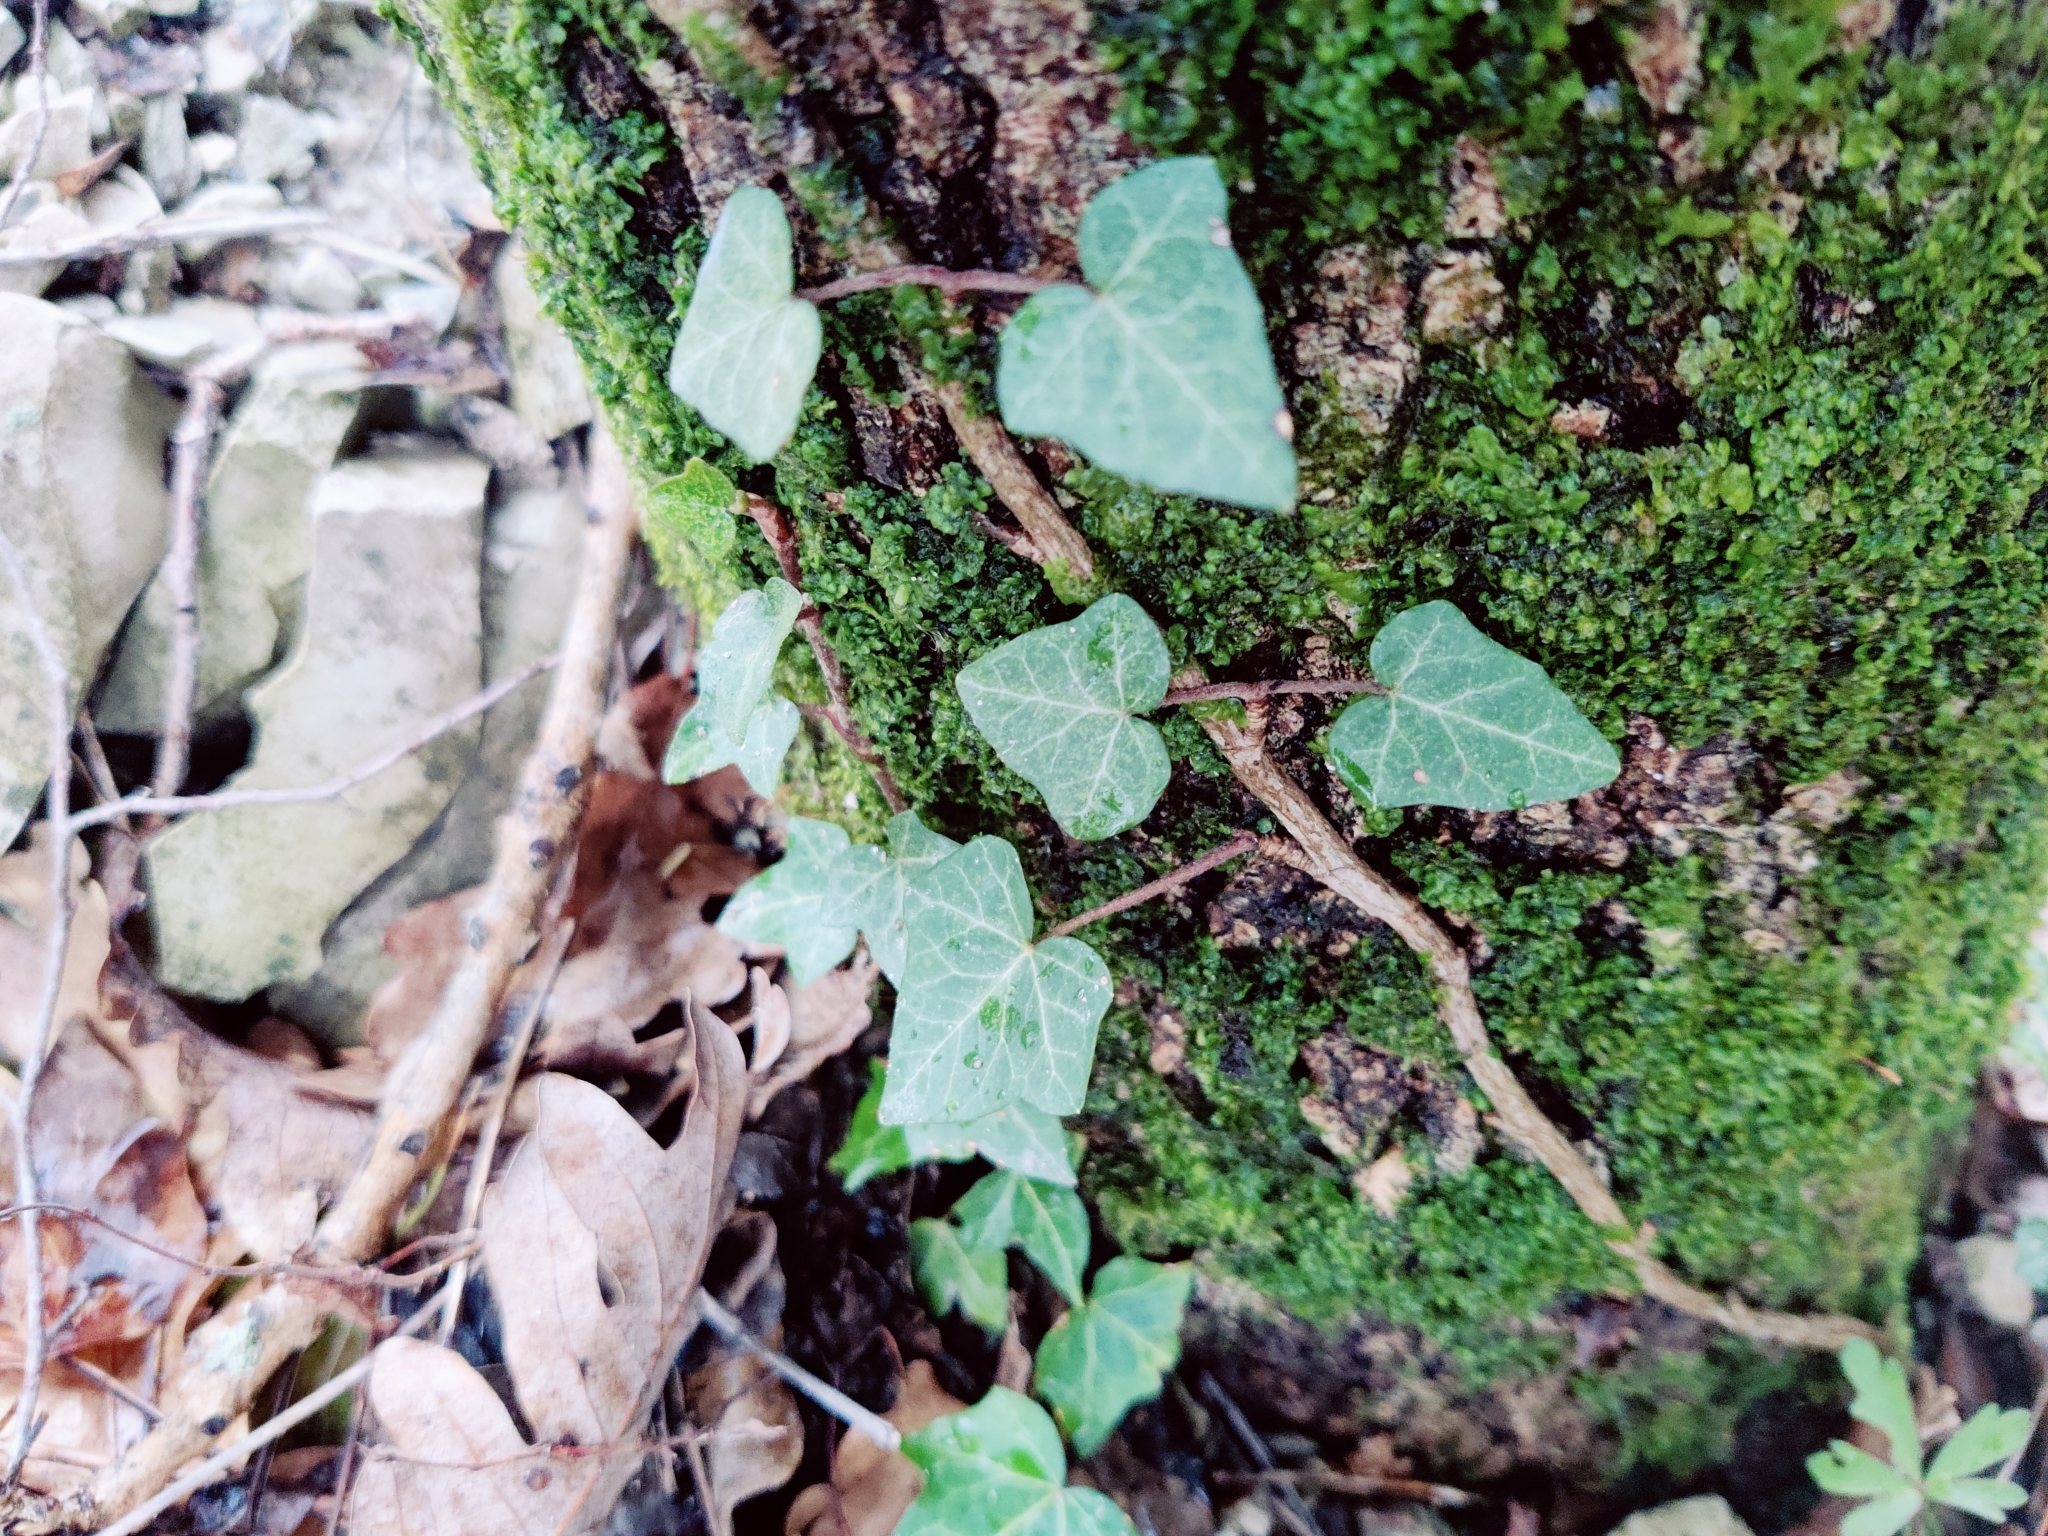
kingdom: Plantae
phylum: Tracheophyta
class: Magnoliopsida
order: Apiales
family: Araliaceae
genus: Hedera
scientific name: Hedera helix
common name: Ivy
